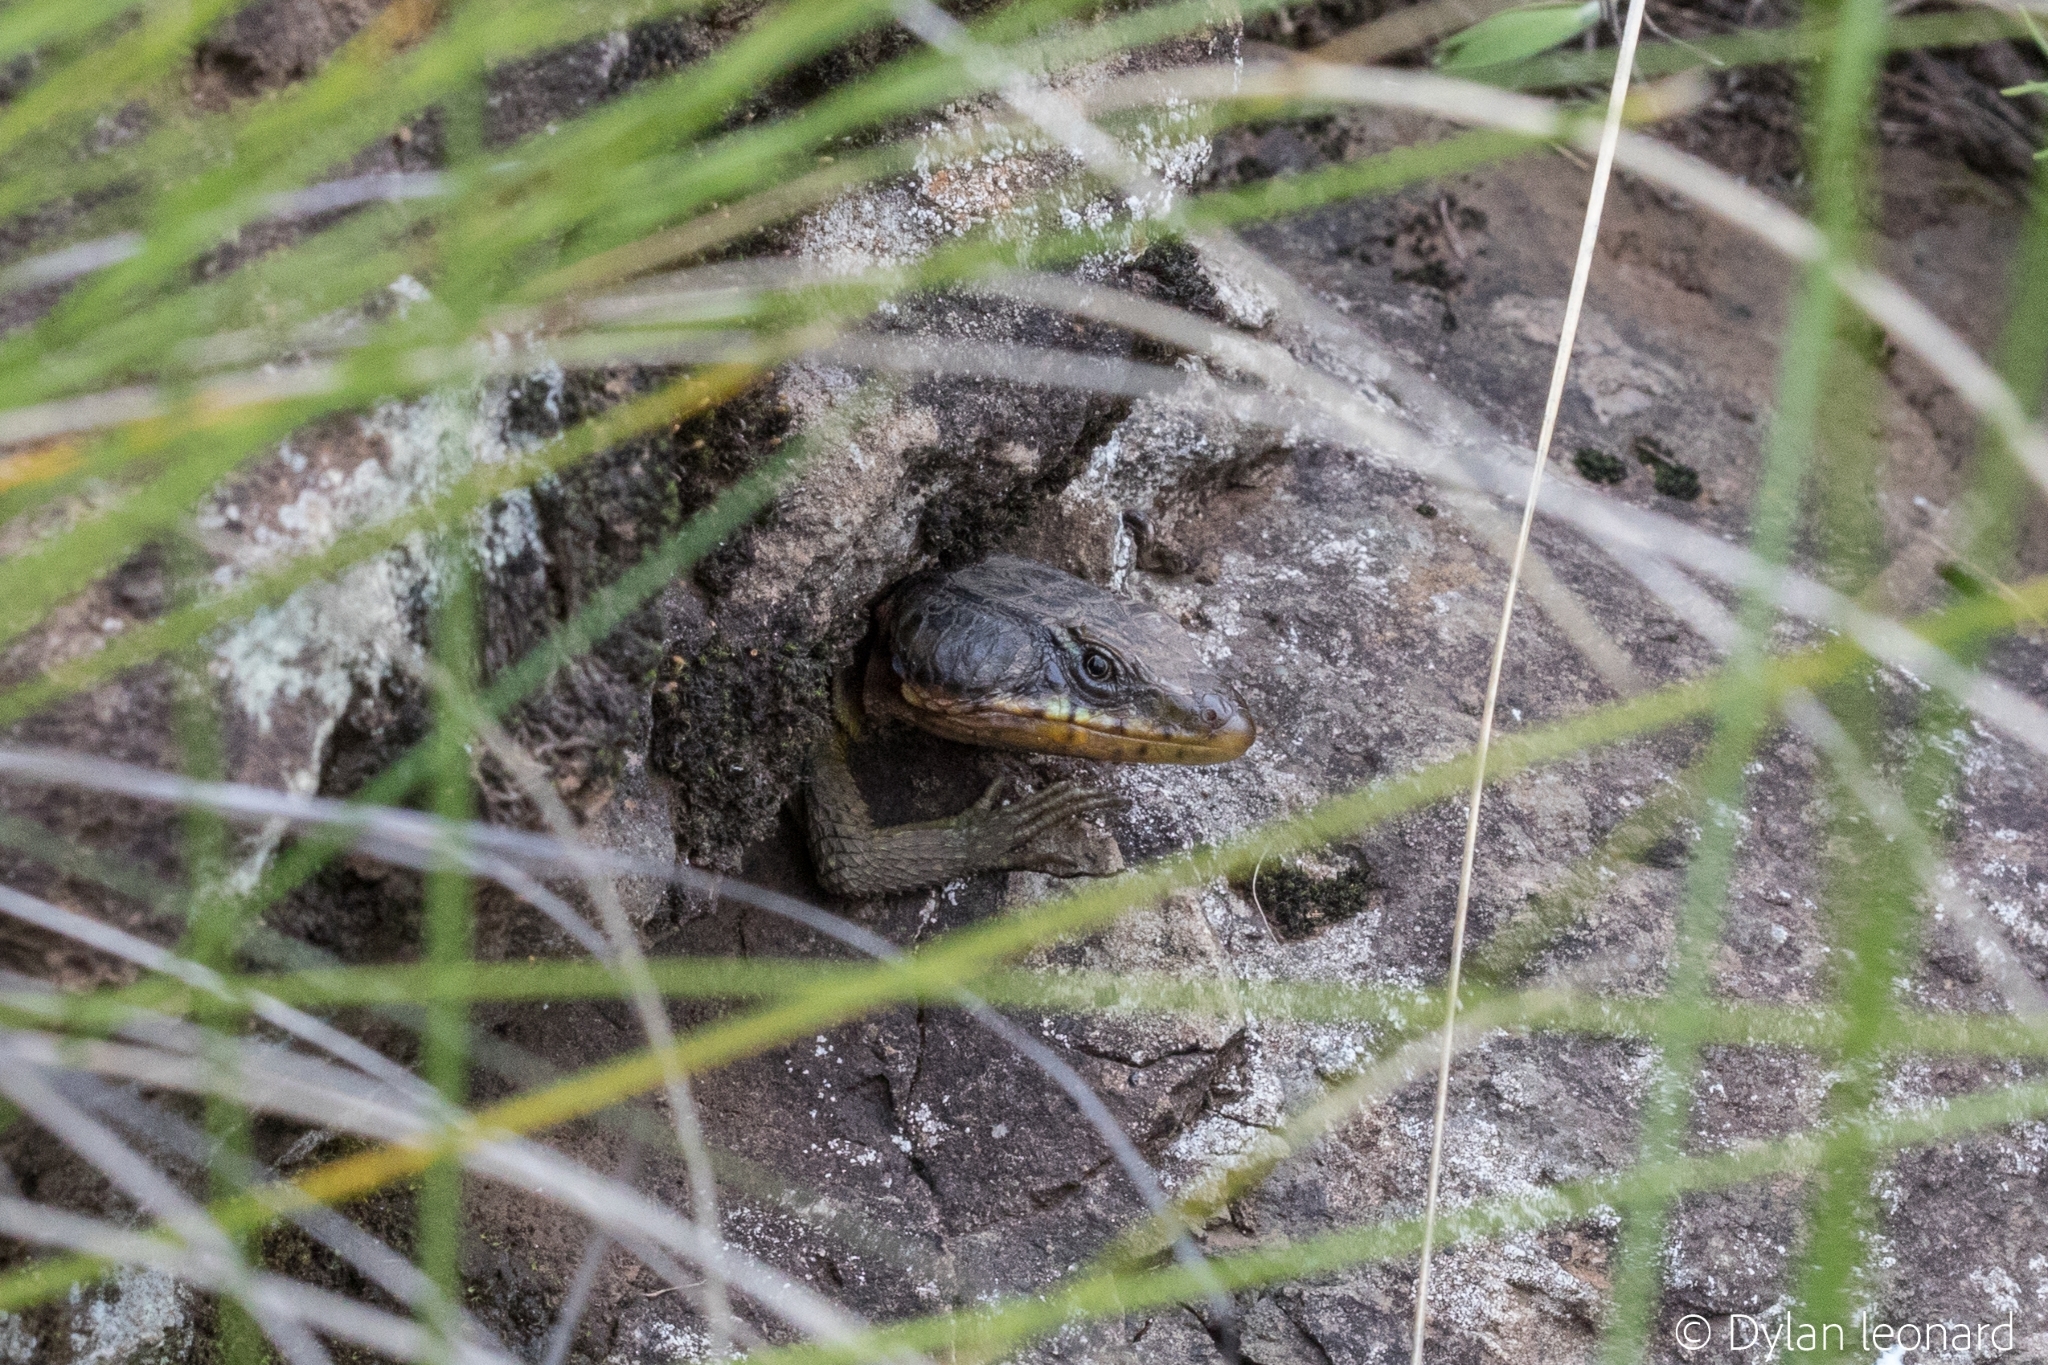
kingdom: Animalia
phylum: Chordata
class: Squamata
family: Cordylidae
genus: Pseudocordylus
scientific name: Pseudocordylus subviridis
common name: Drakensberg crag lizard
